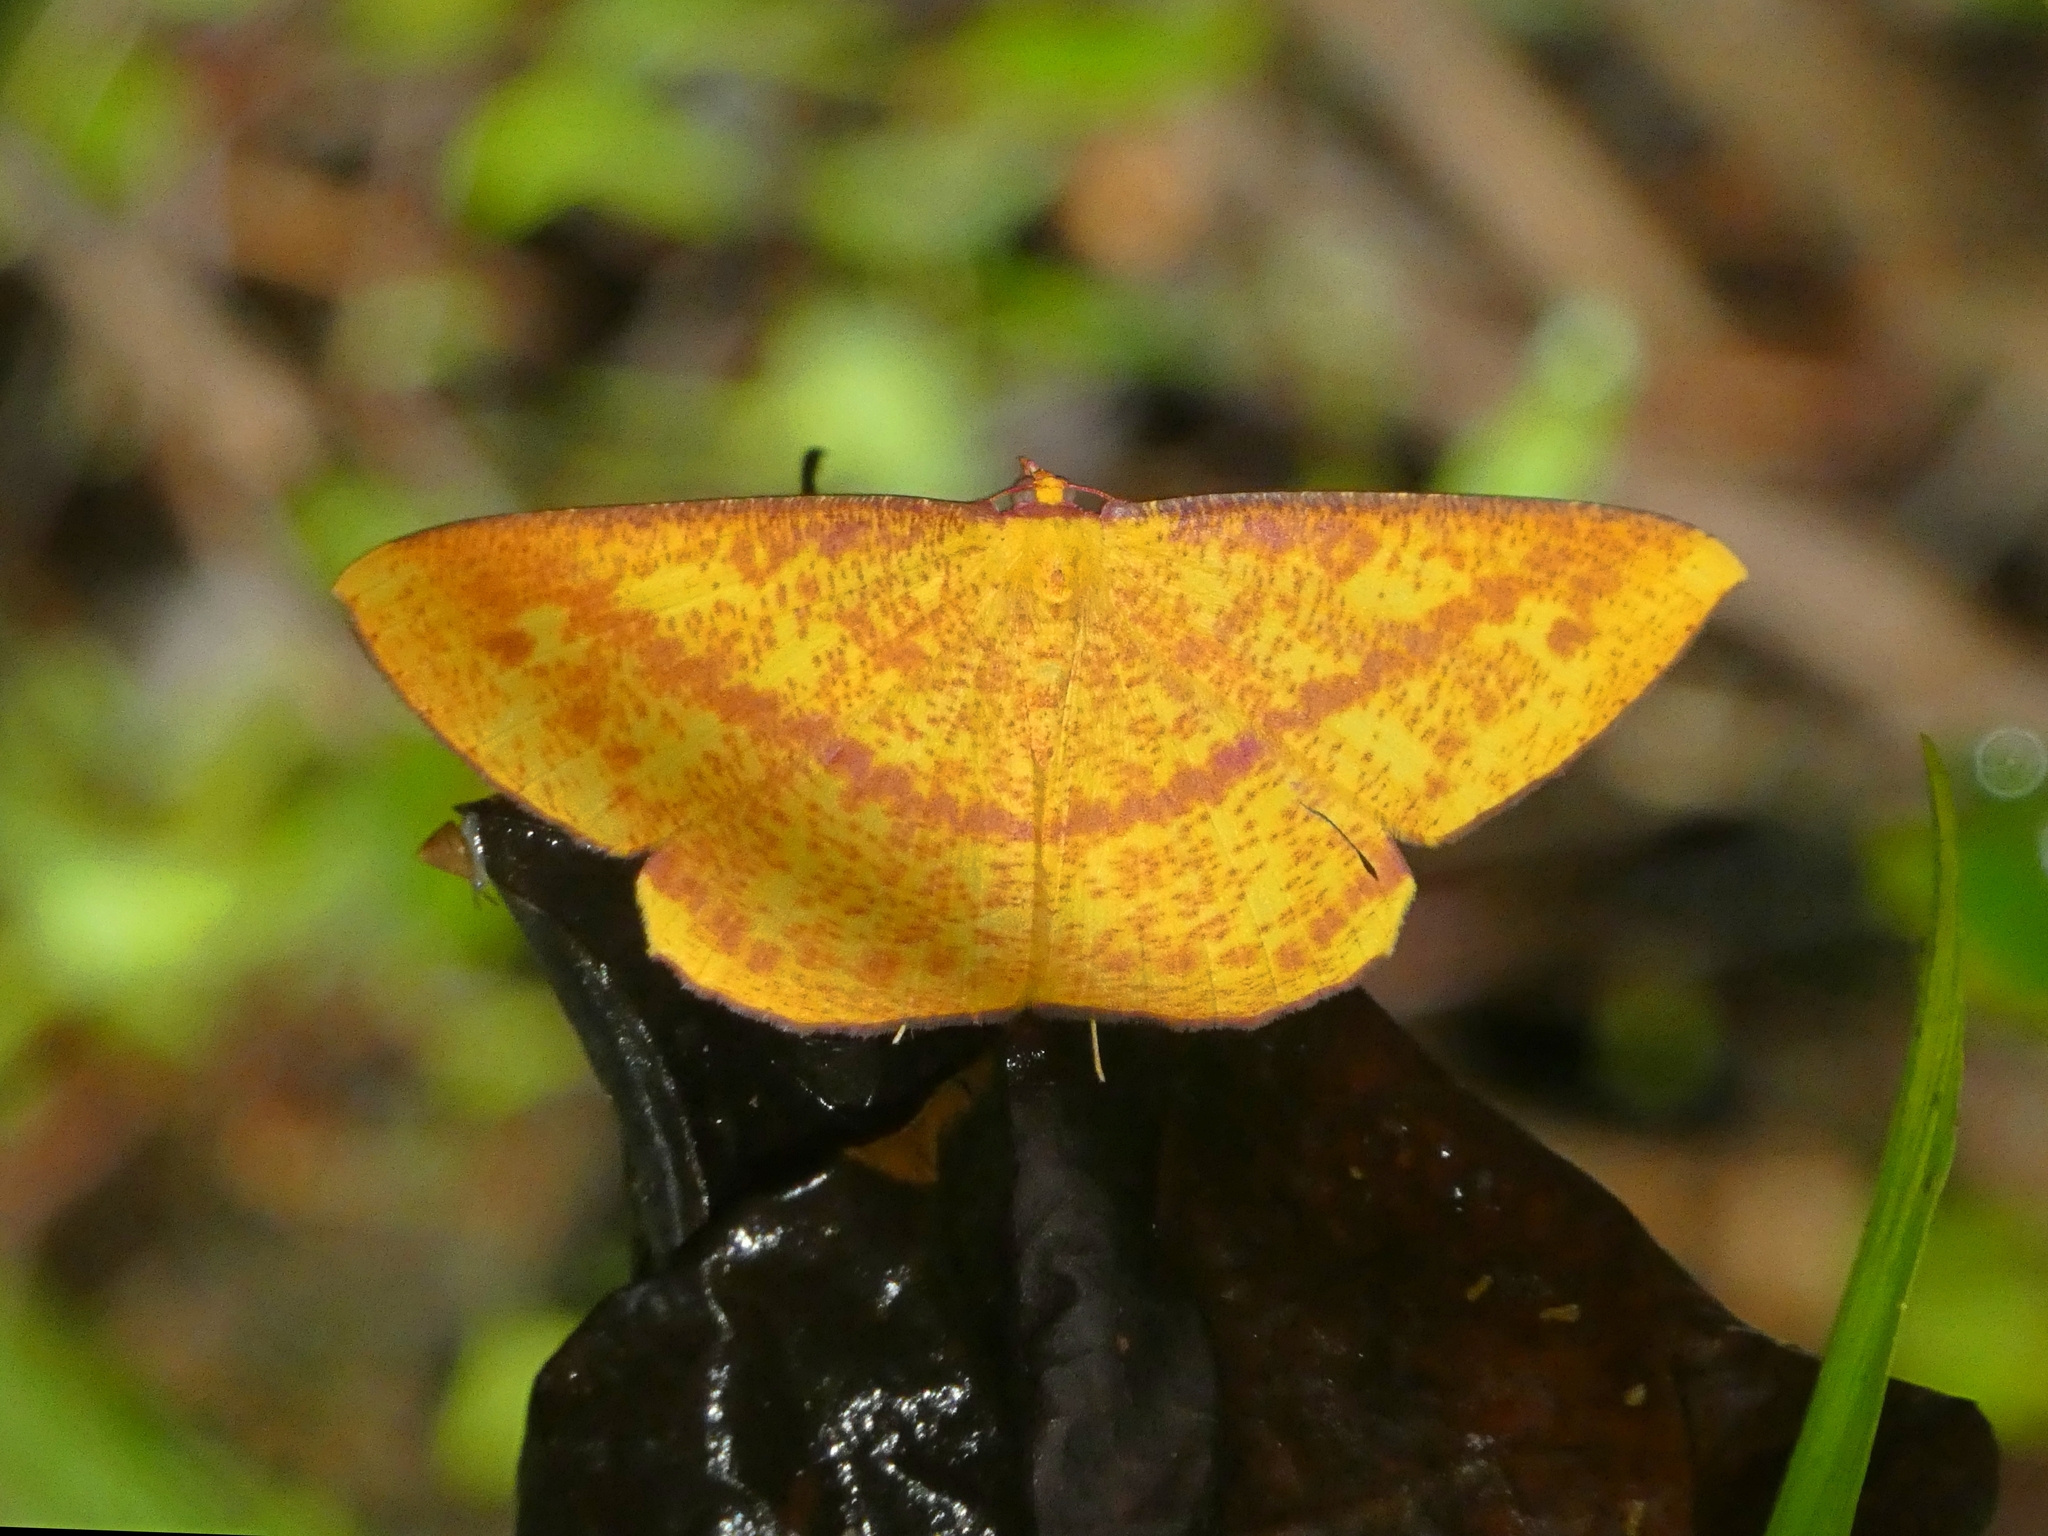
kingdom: Animalia
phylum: Arthropoda
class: Insecta
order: Lepidoptera
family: Geometridae
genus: Eumelea
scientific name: Eumelea duponchelii
